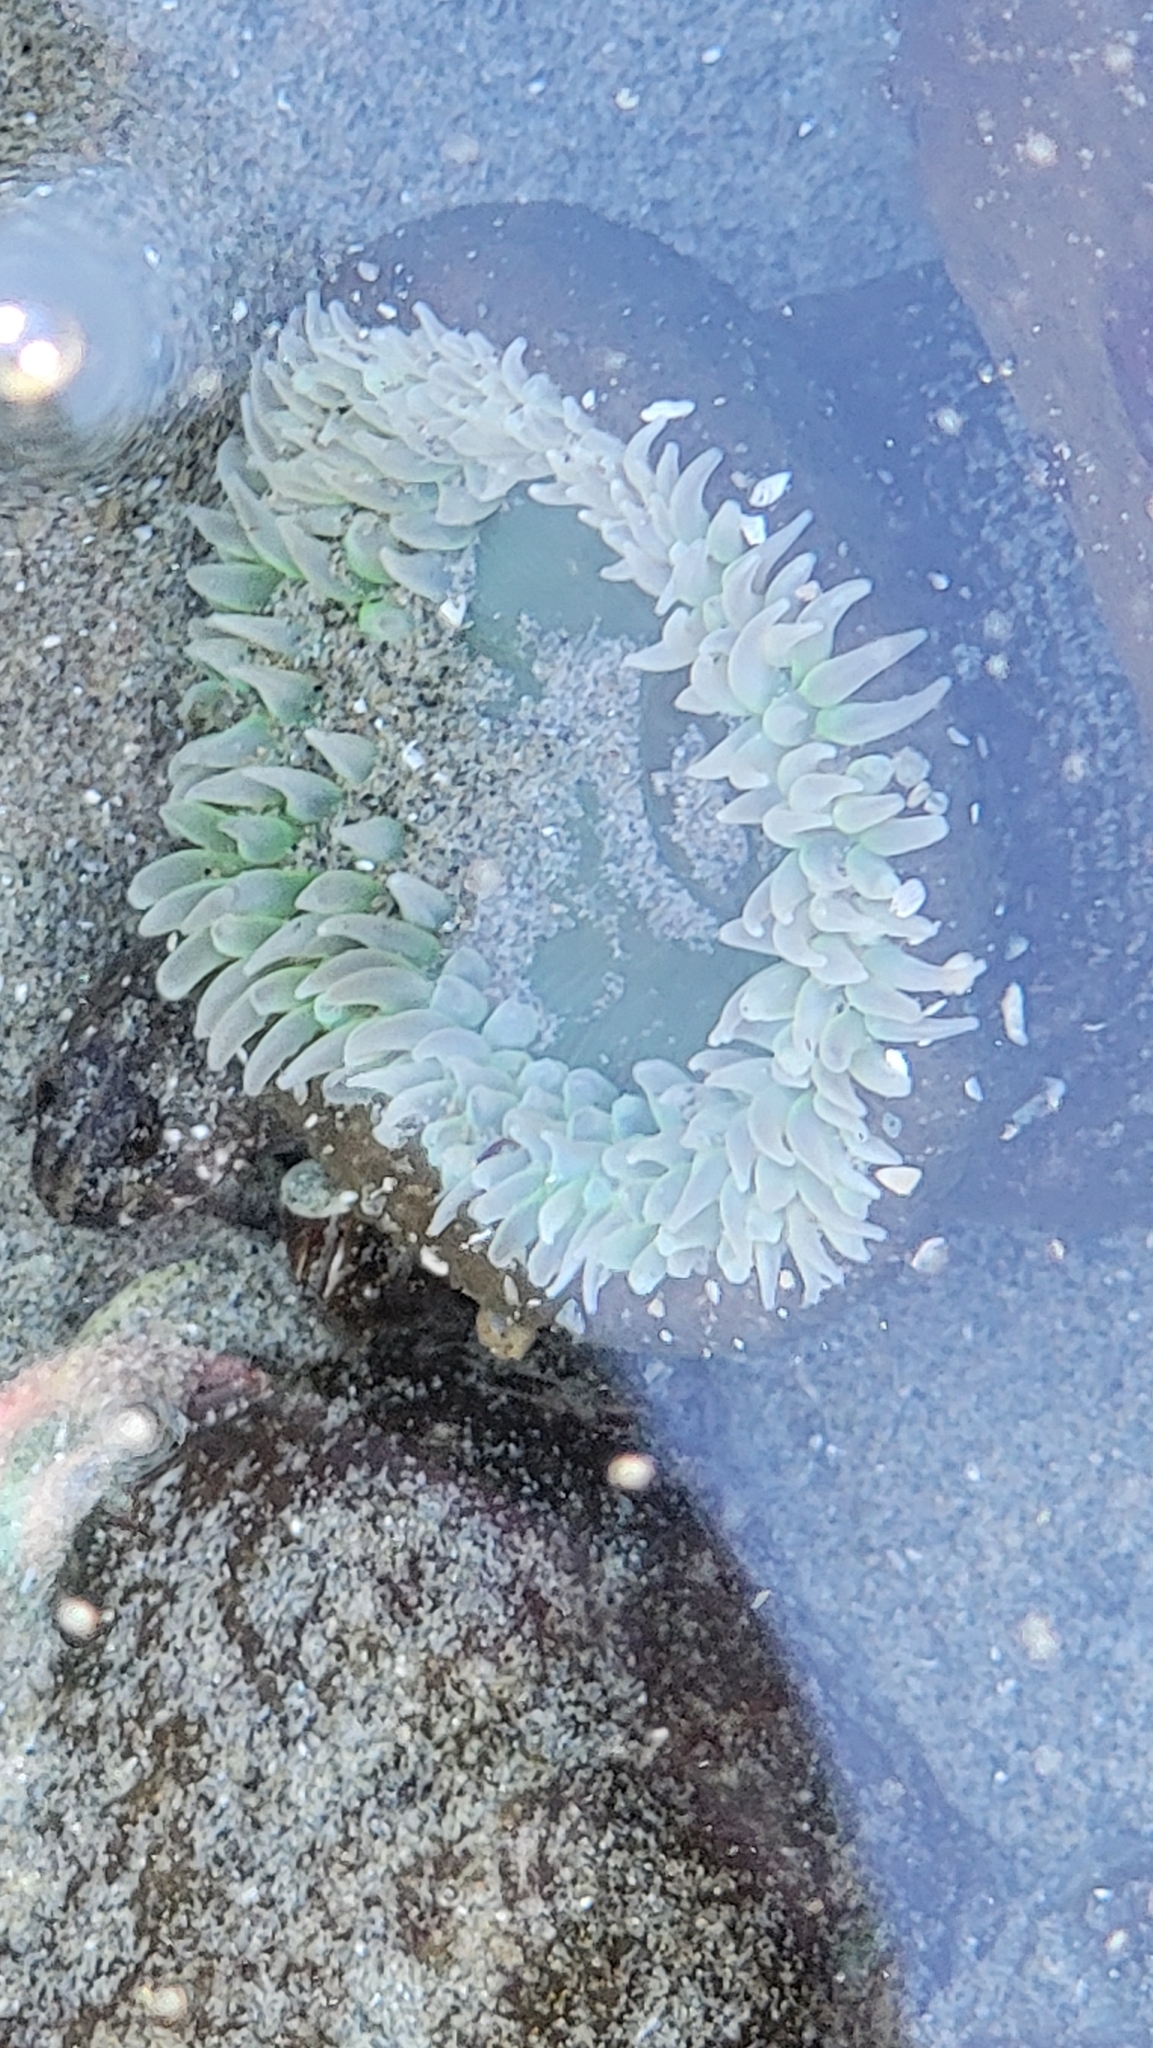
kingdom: Animalia
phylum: Cnidaria
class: Anthozoa
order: Actiniaria
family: Actiniidae
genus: Anthopleura
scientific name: Anthopleura xanthogrammica
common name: Giant green anemone
